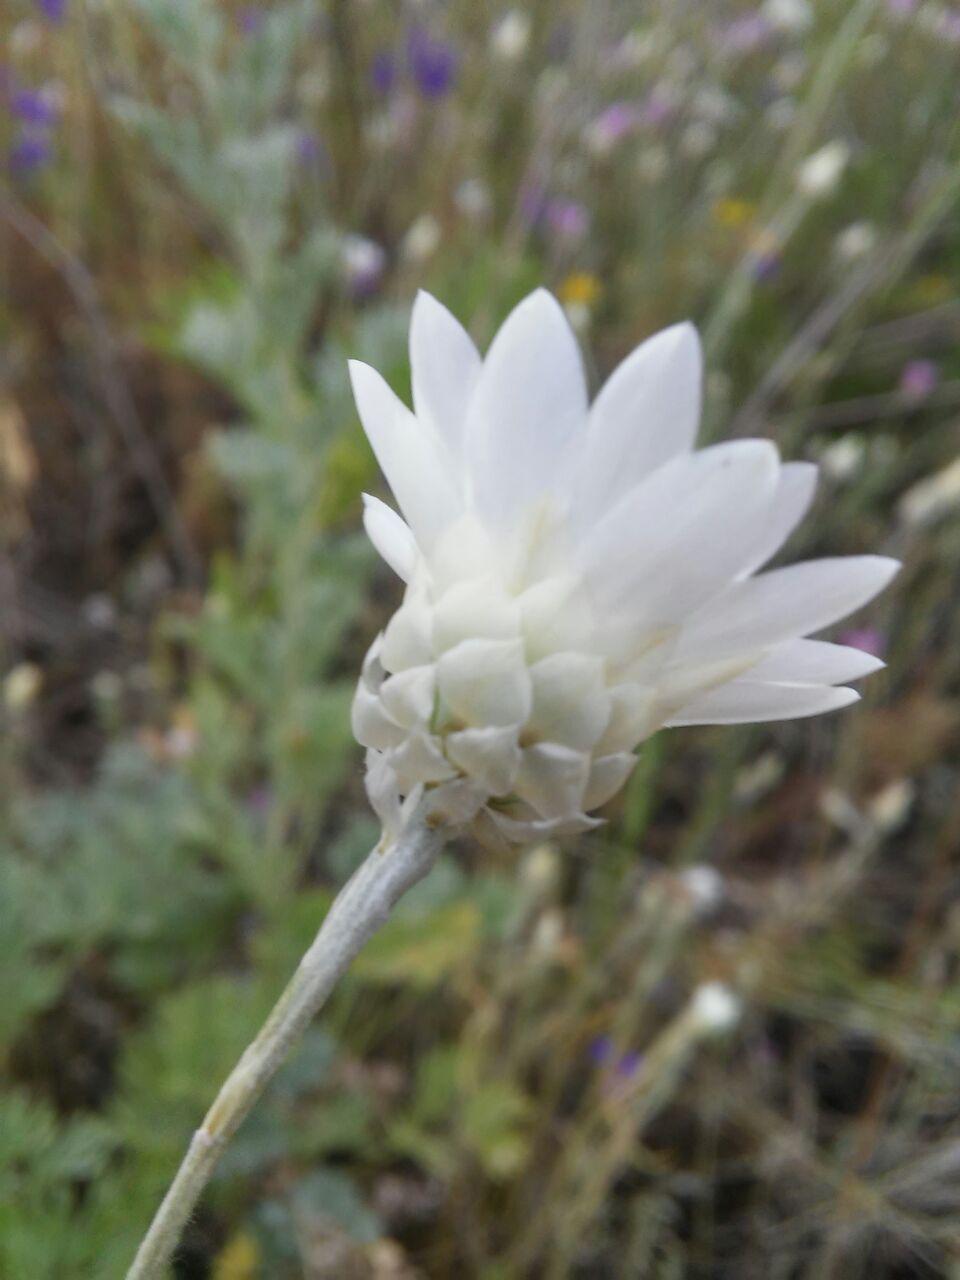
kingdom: Plantae
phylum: Tracheophyta
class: Magnoliopsida
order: Asterales
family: Asteraceae
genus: Xeranthemum
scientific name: Xeranthemum annuum
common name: Immortelle
